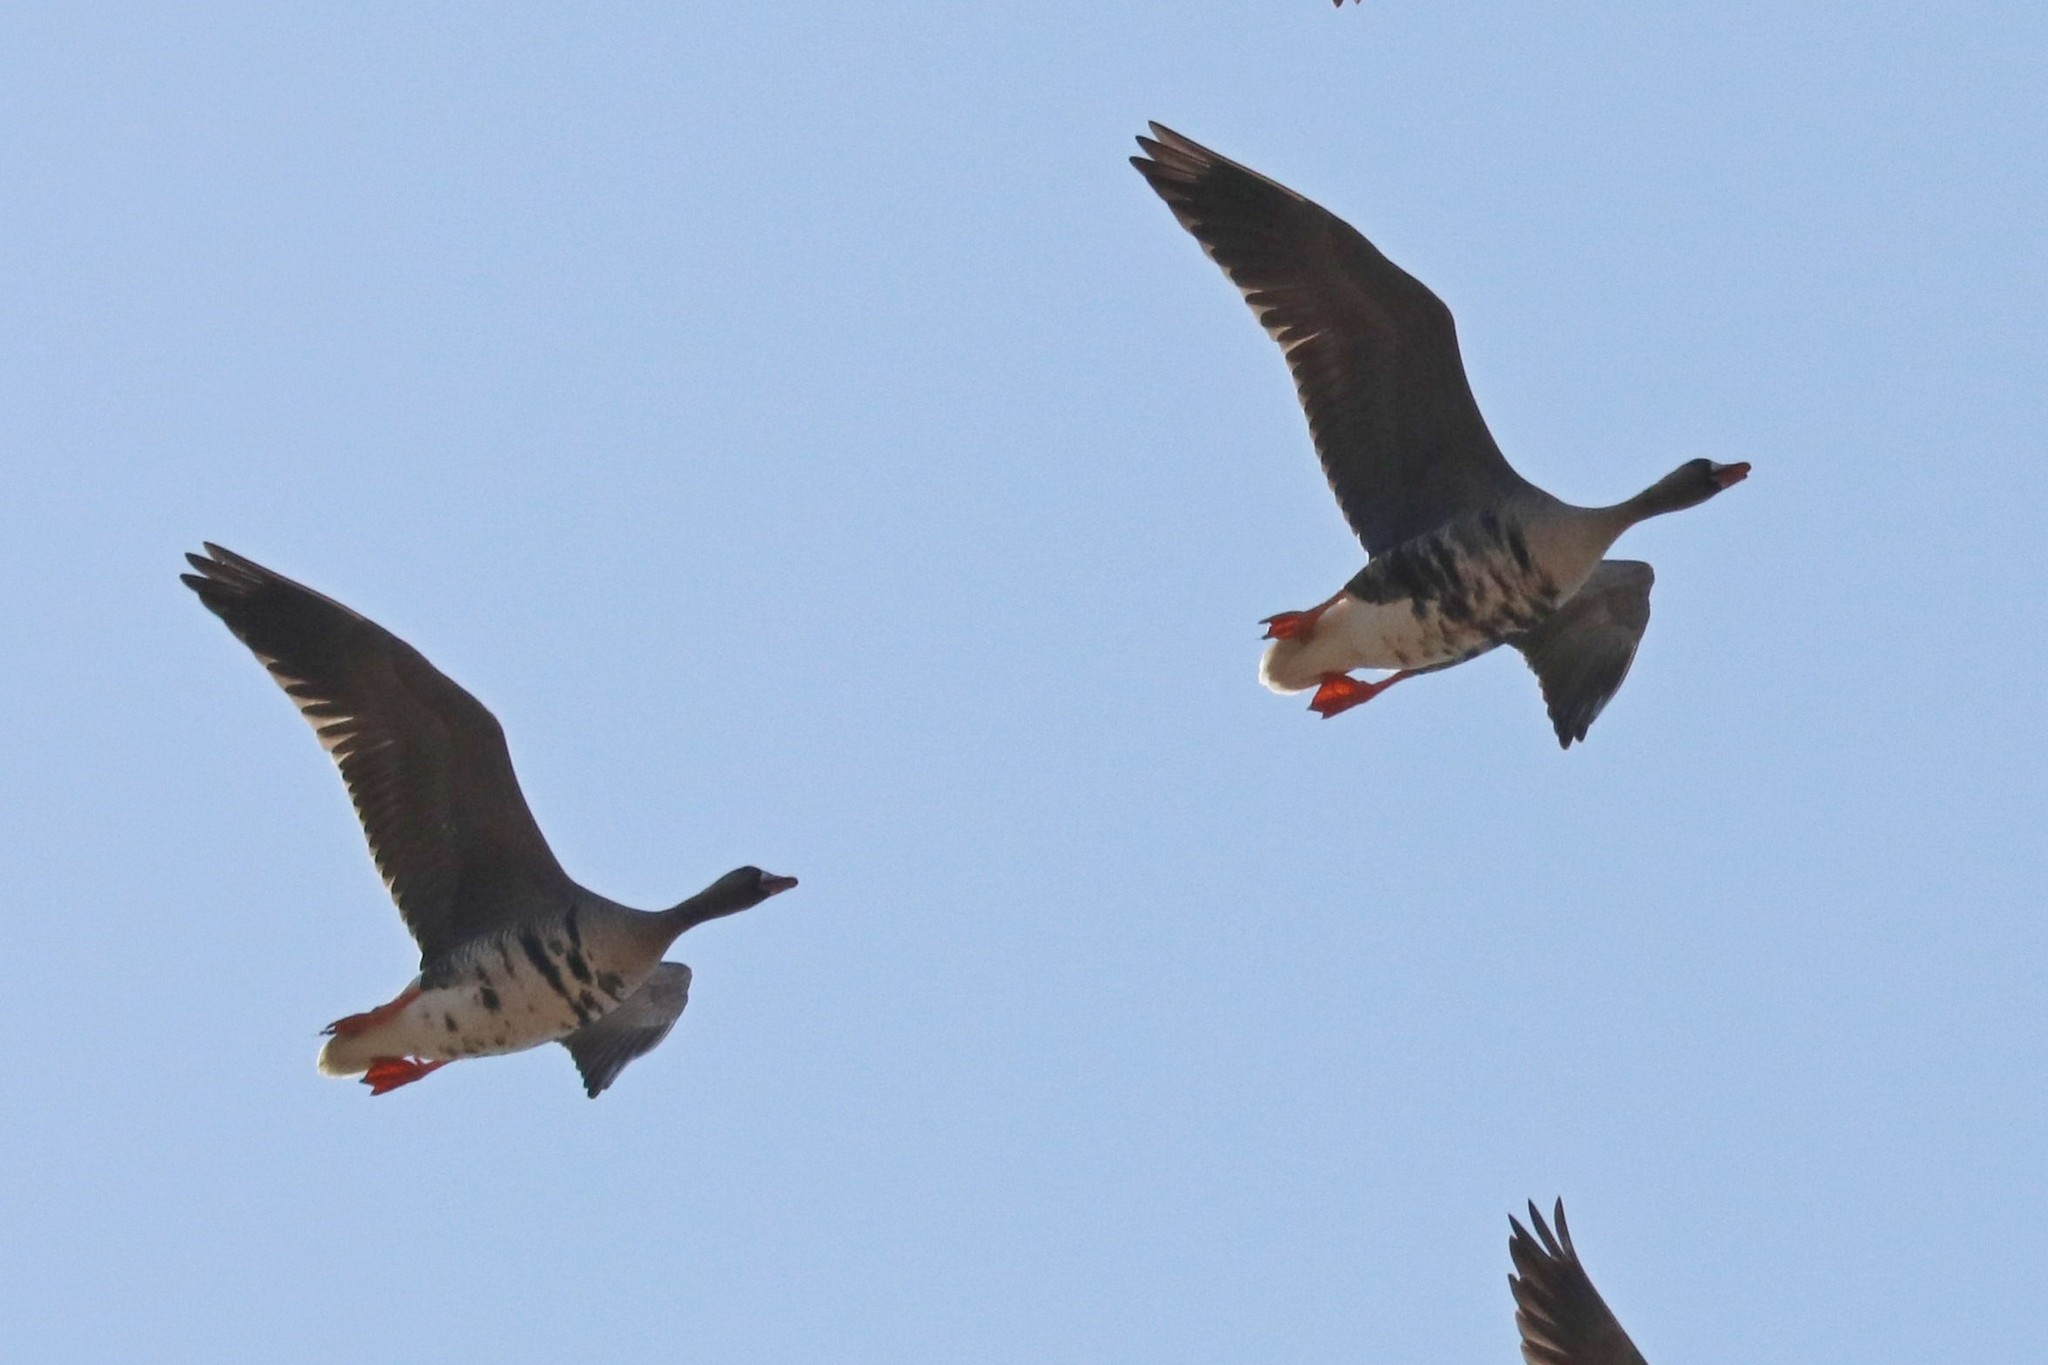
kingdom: Animalia
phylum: Chordata
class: Aves
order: Anseriformes
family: Anatidae
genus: Anser
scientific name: Anser albifrons
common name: Greater white-fronted goose
